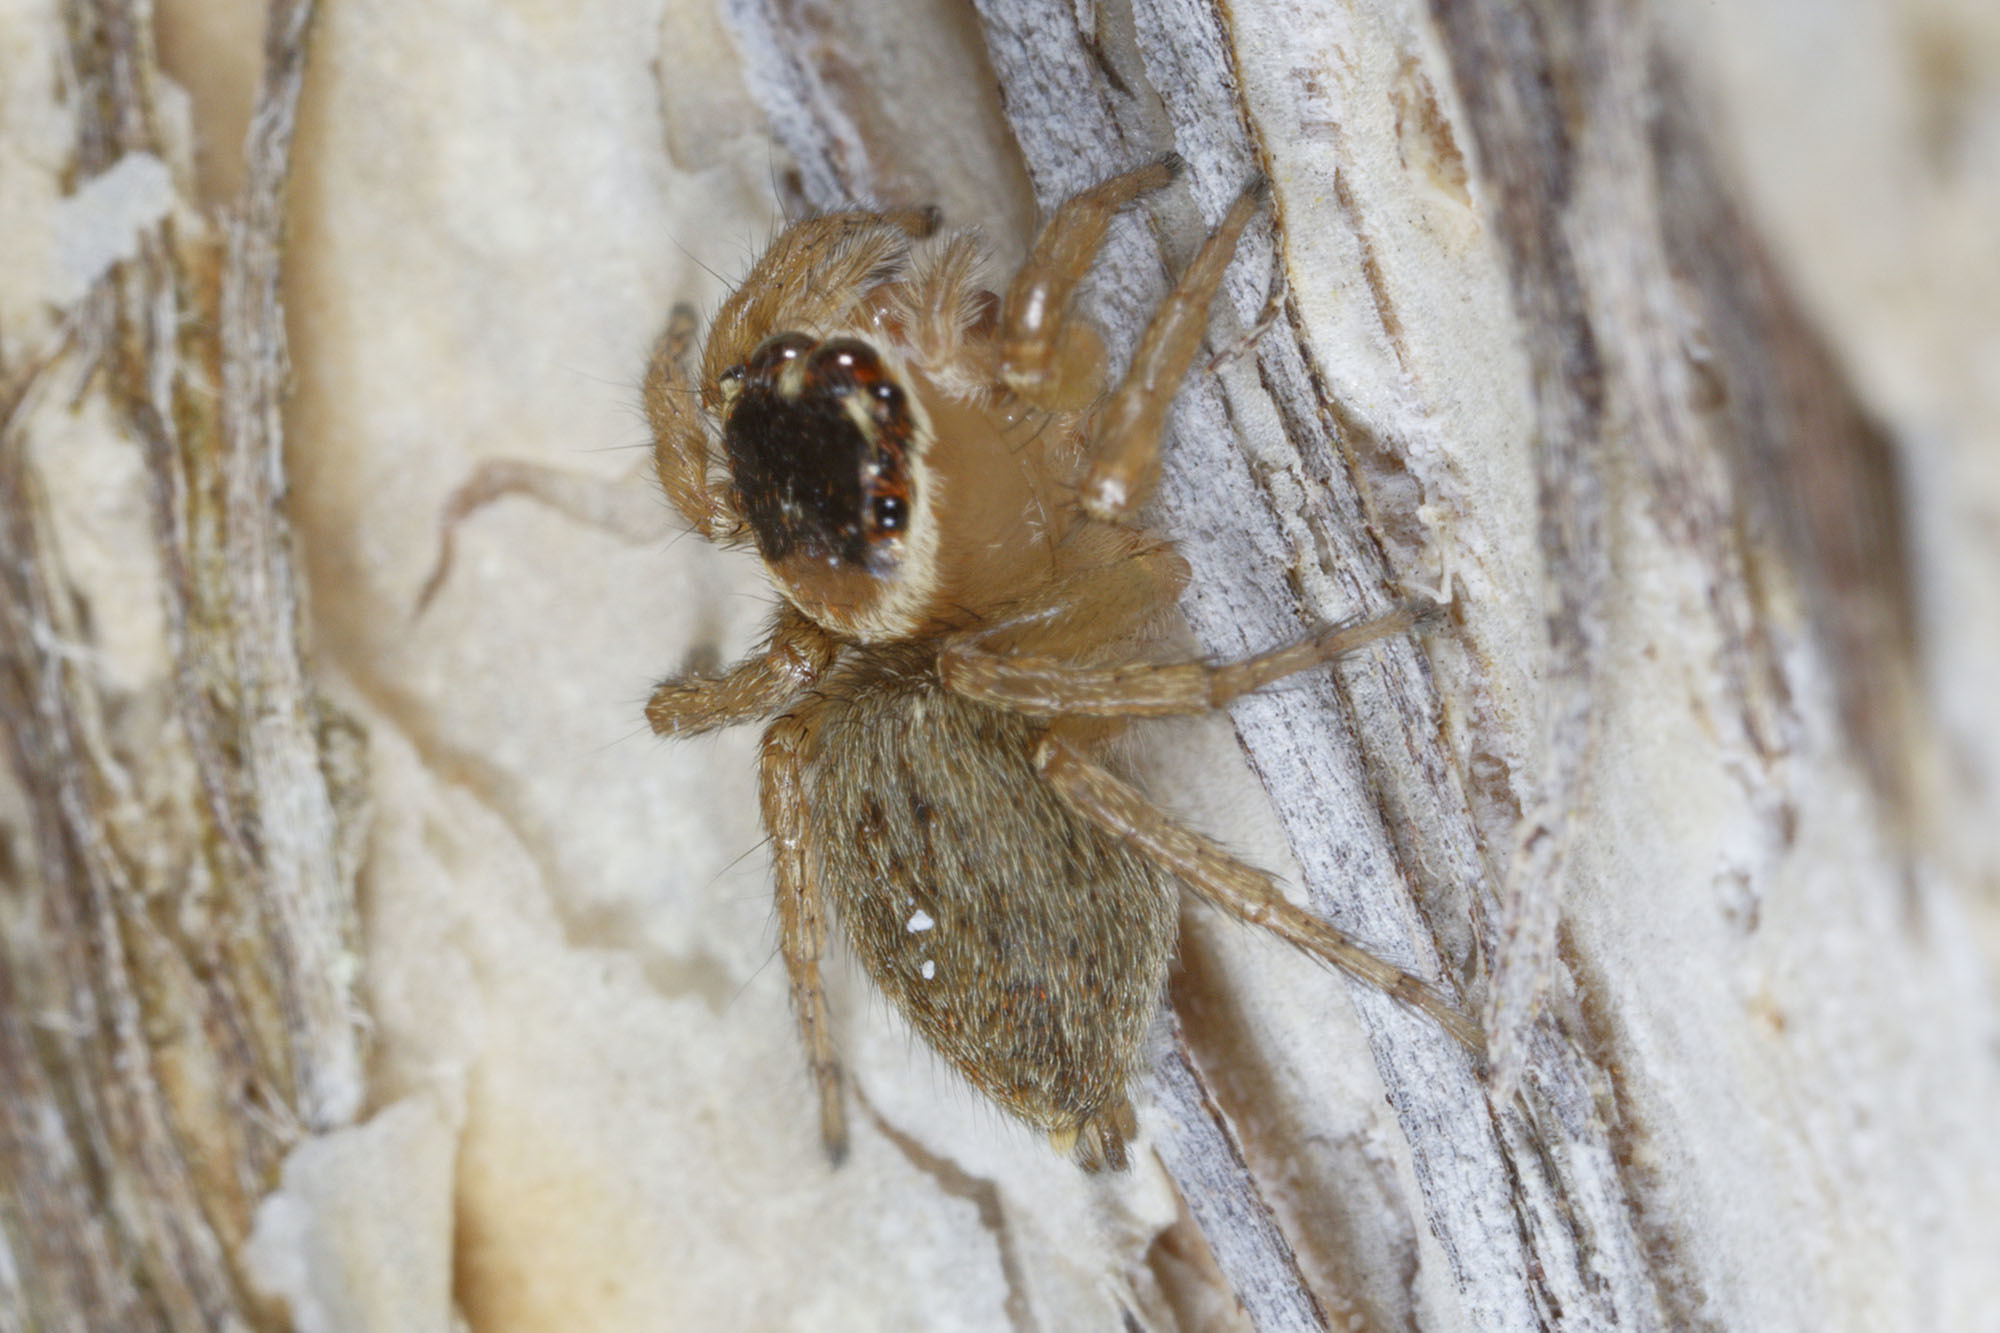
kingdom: Animalia
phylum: Arthropoda
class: Arachnida
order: Araneae
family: Salticidae
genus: Maratus
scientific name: Maratus griseus
